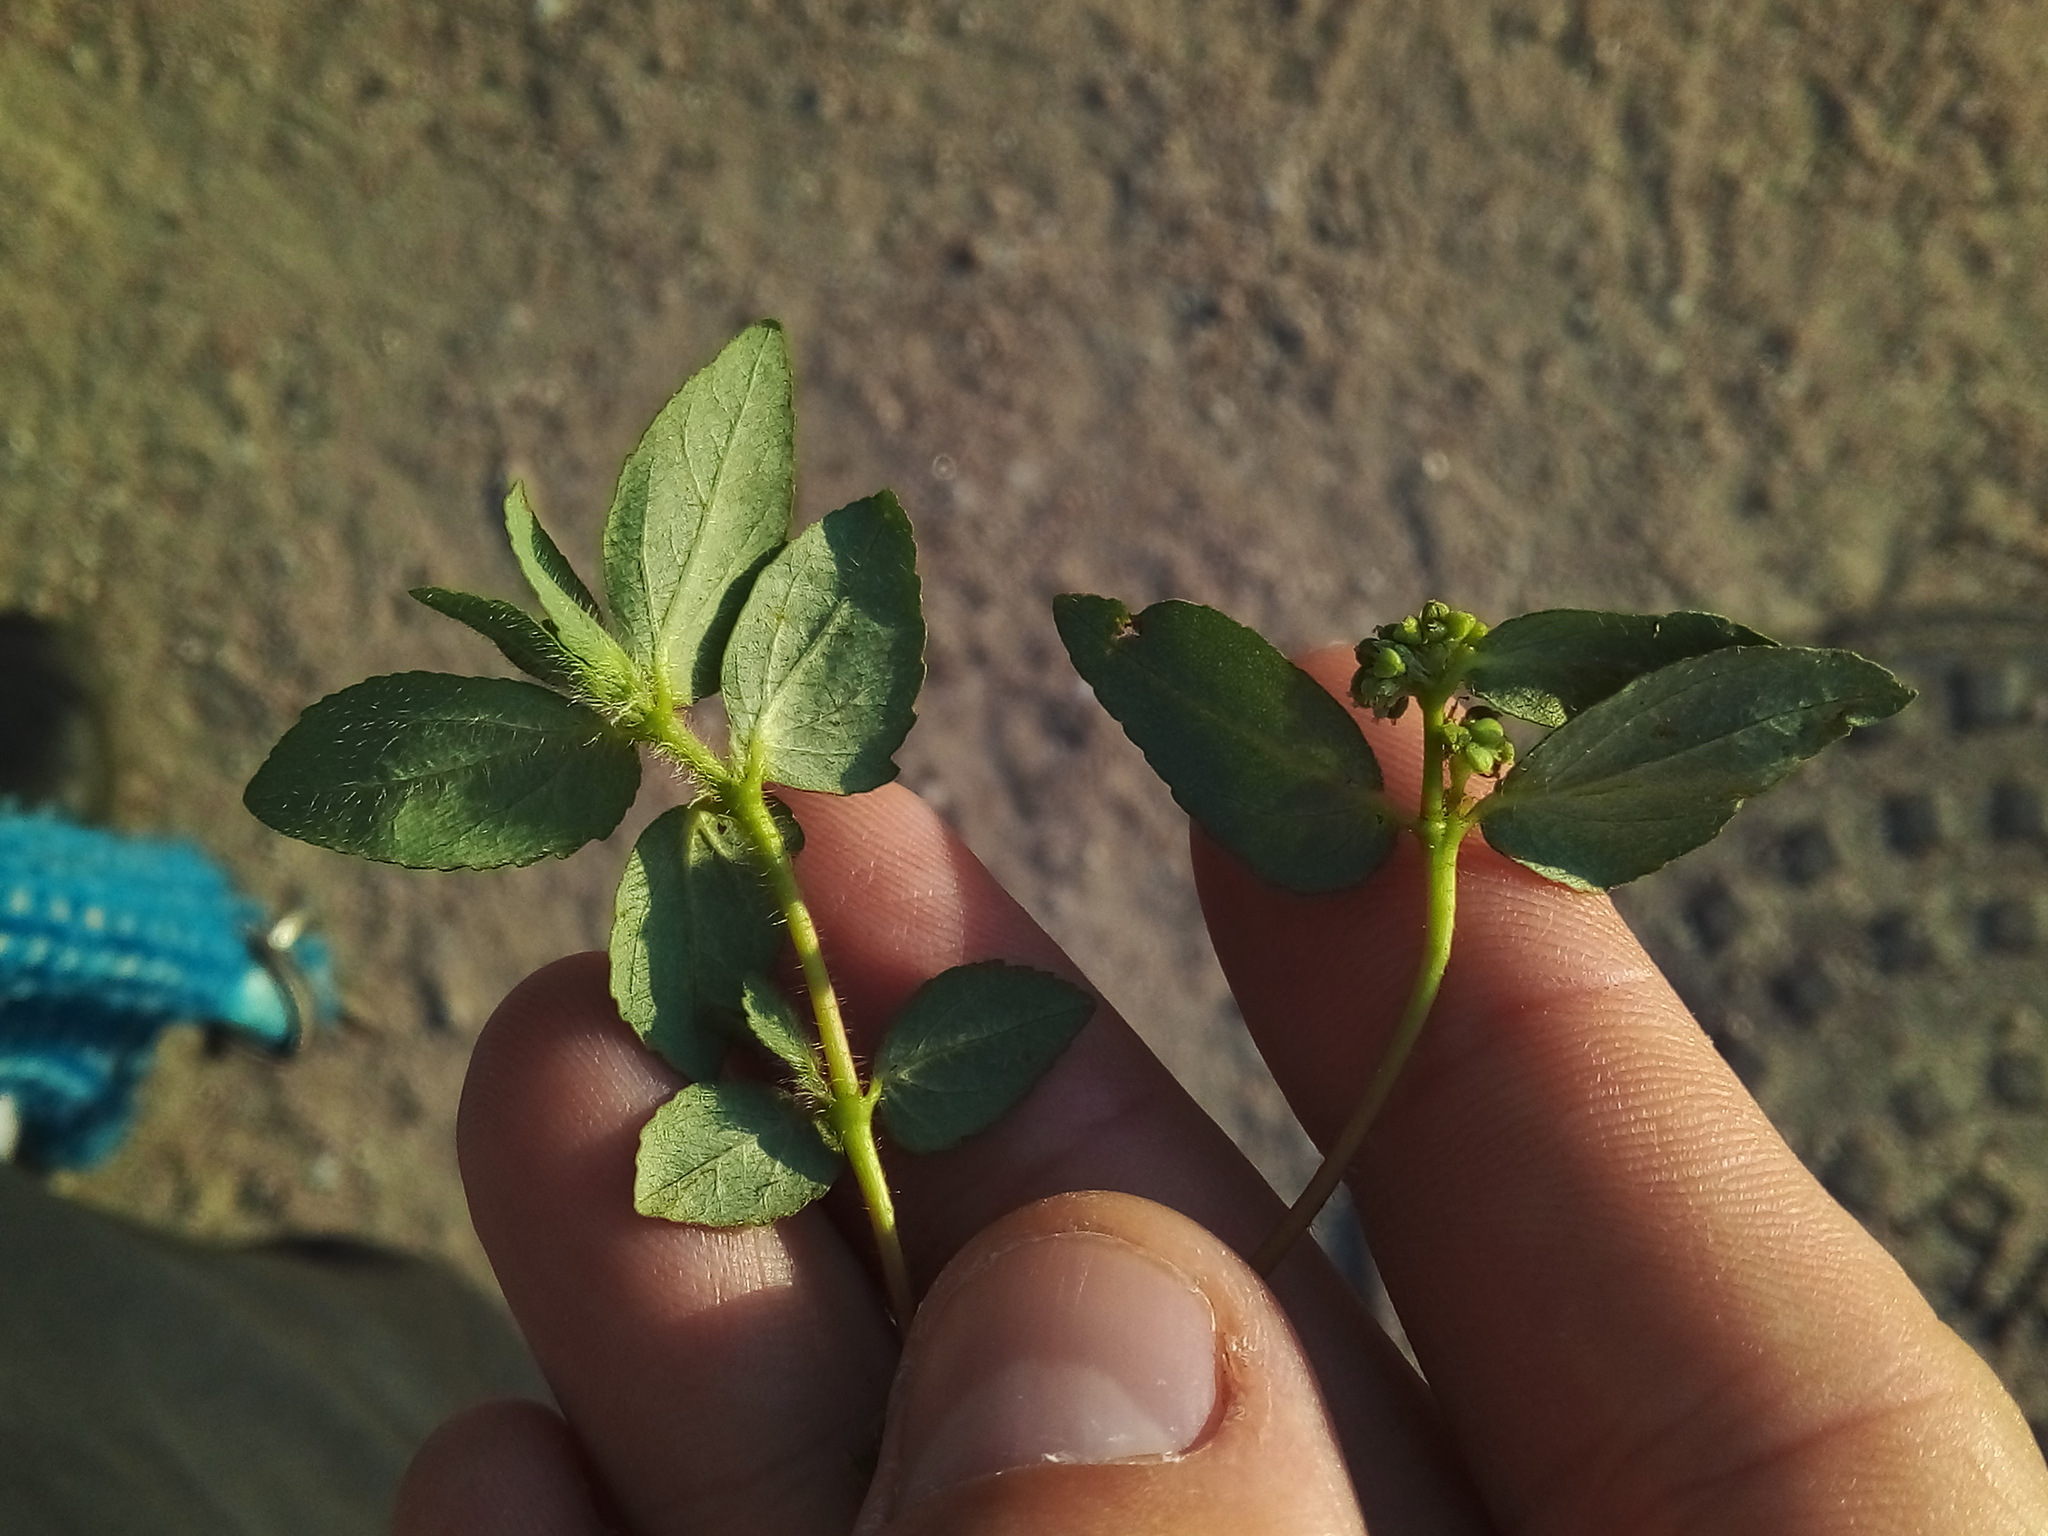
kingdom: Plantae
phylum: Tracheophyta
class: Magnoliopsida
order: Malpighiales
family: Euphorbiaceae
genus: Euphorbia
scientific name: Euphorbia ophthalmica
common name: Florida hammock sandmat
